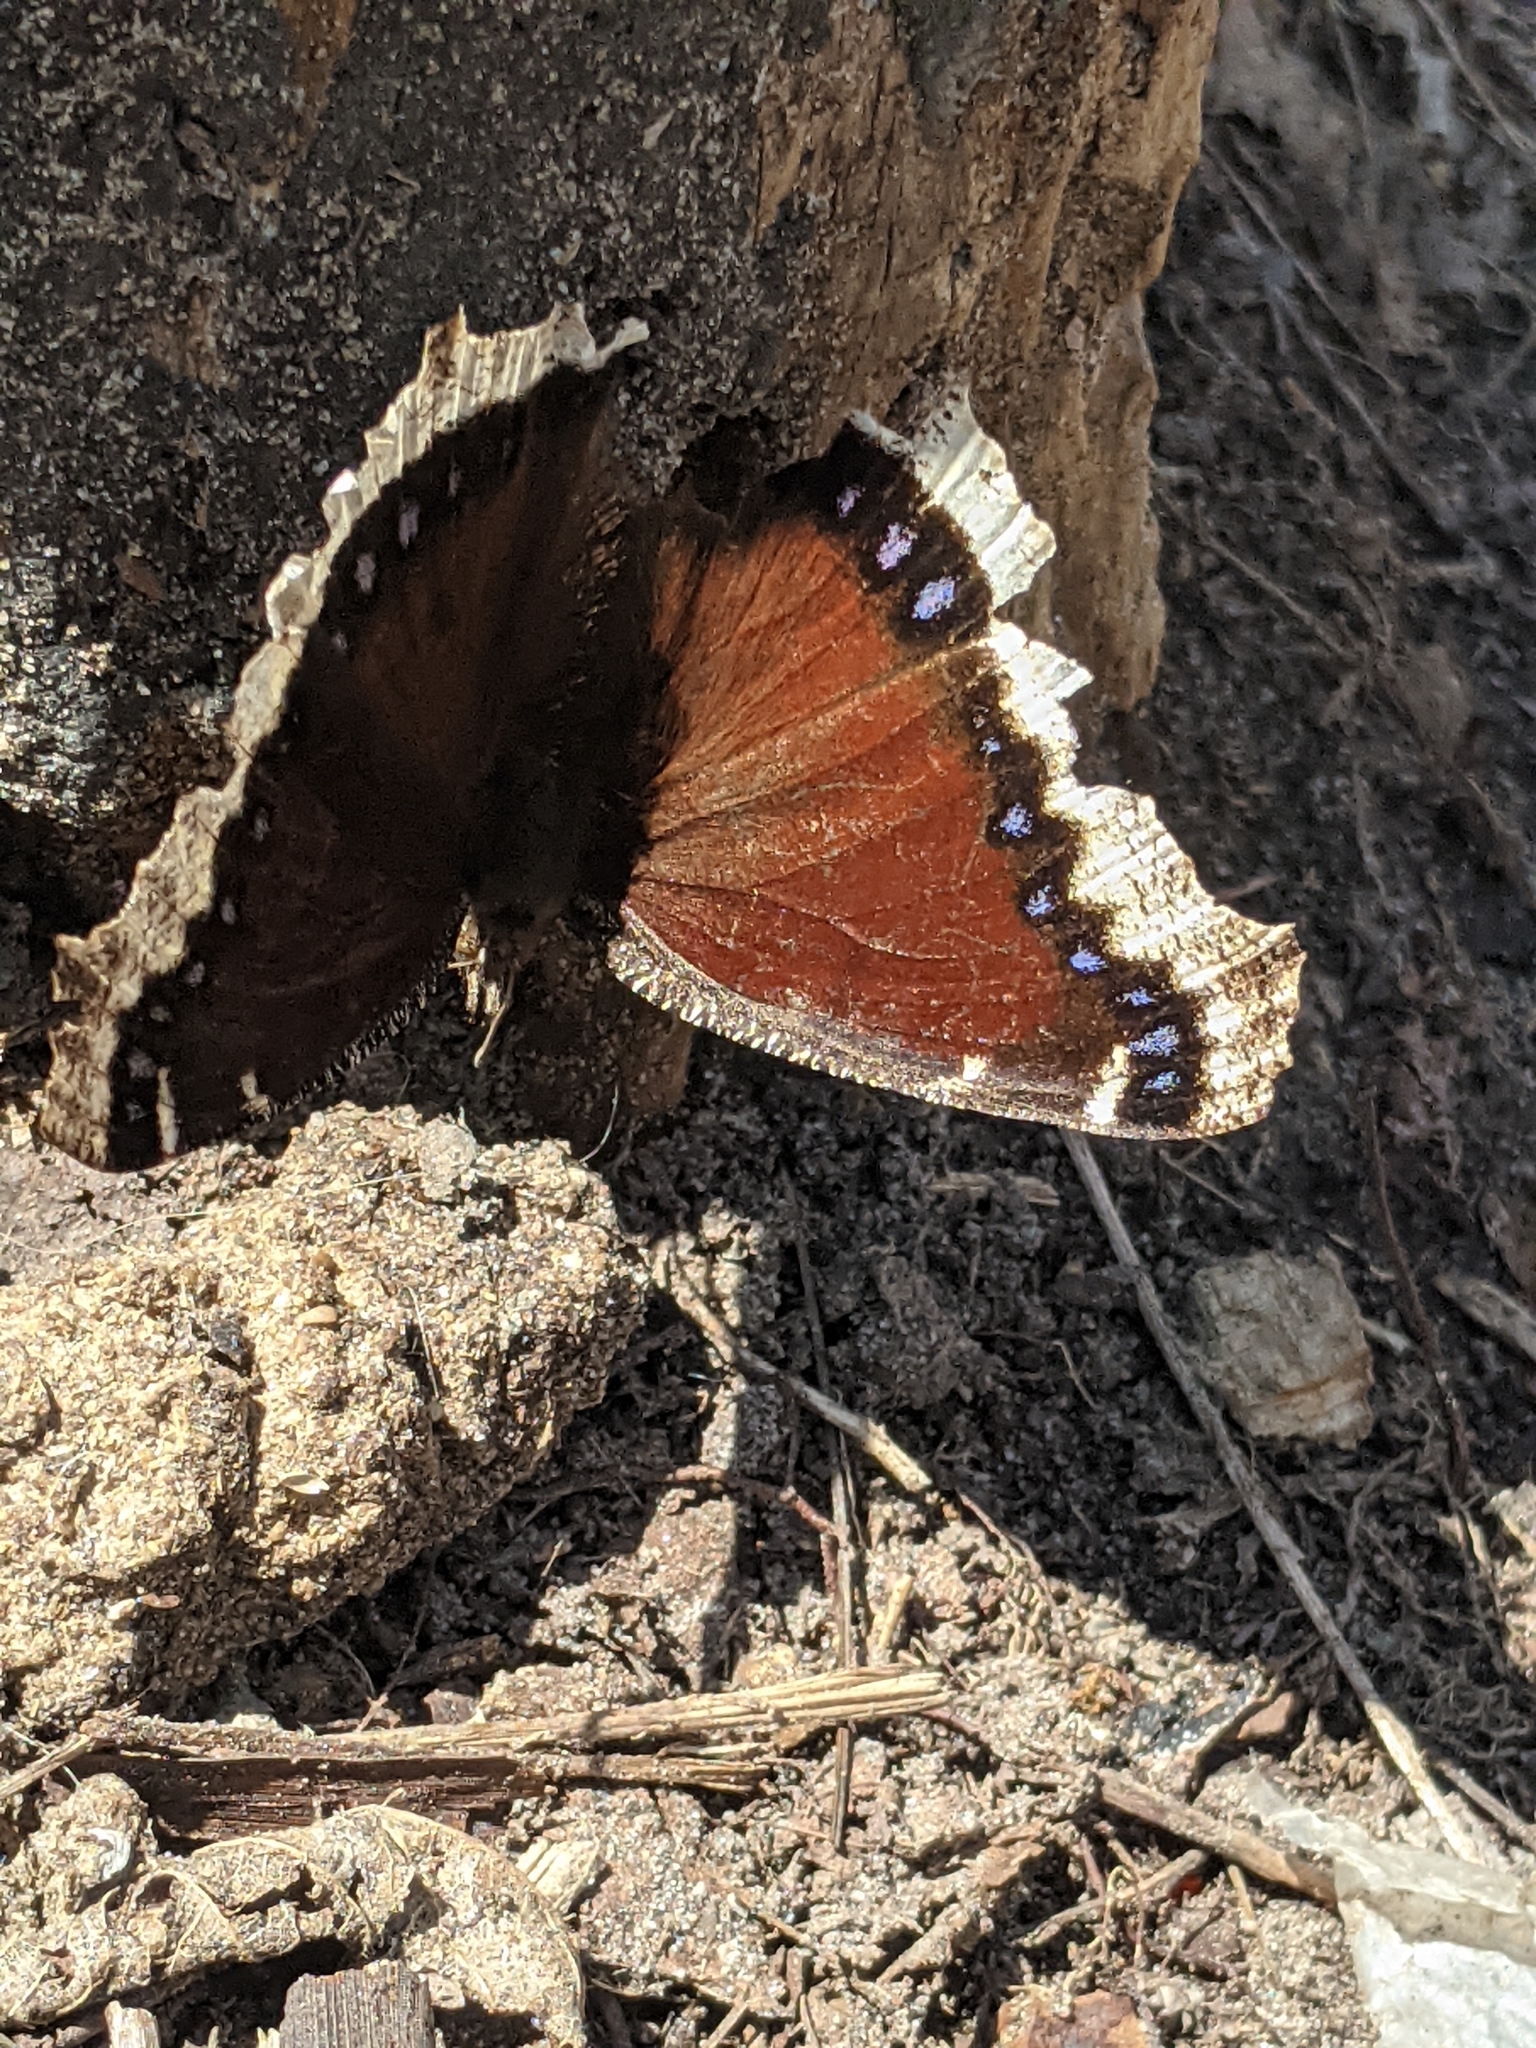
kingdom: Animalia
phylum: Arthropoda
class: Insecta
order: Lepidoptera
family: Nymphalidae
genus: Nymphalis
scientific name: Nymphalis antiopa
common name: Camberwell beauty
